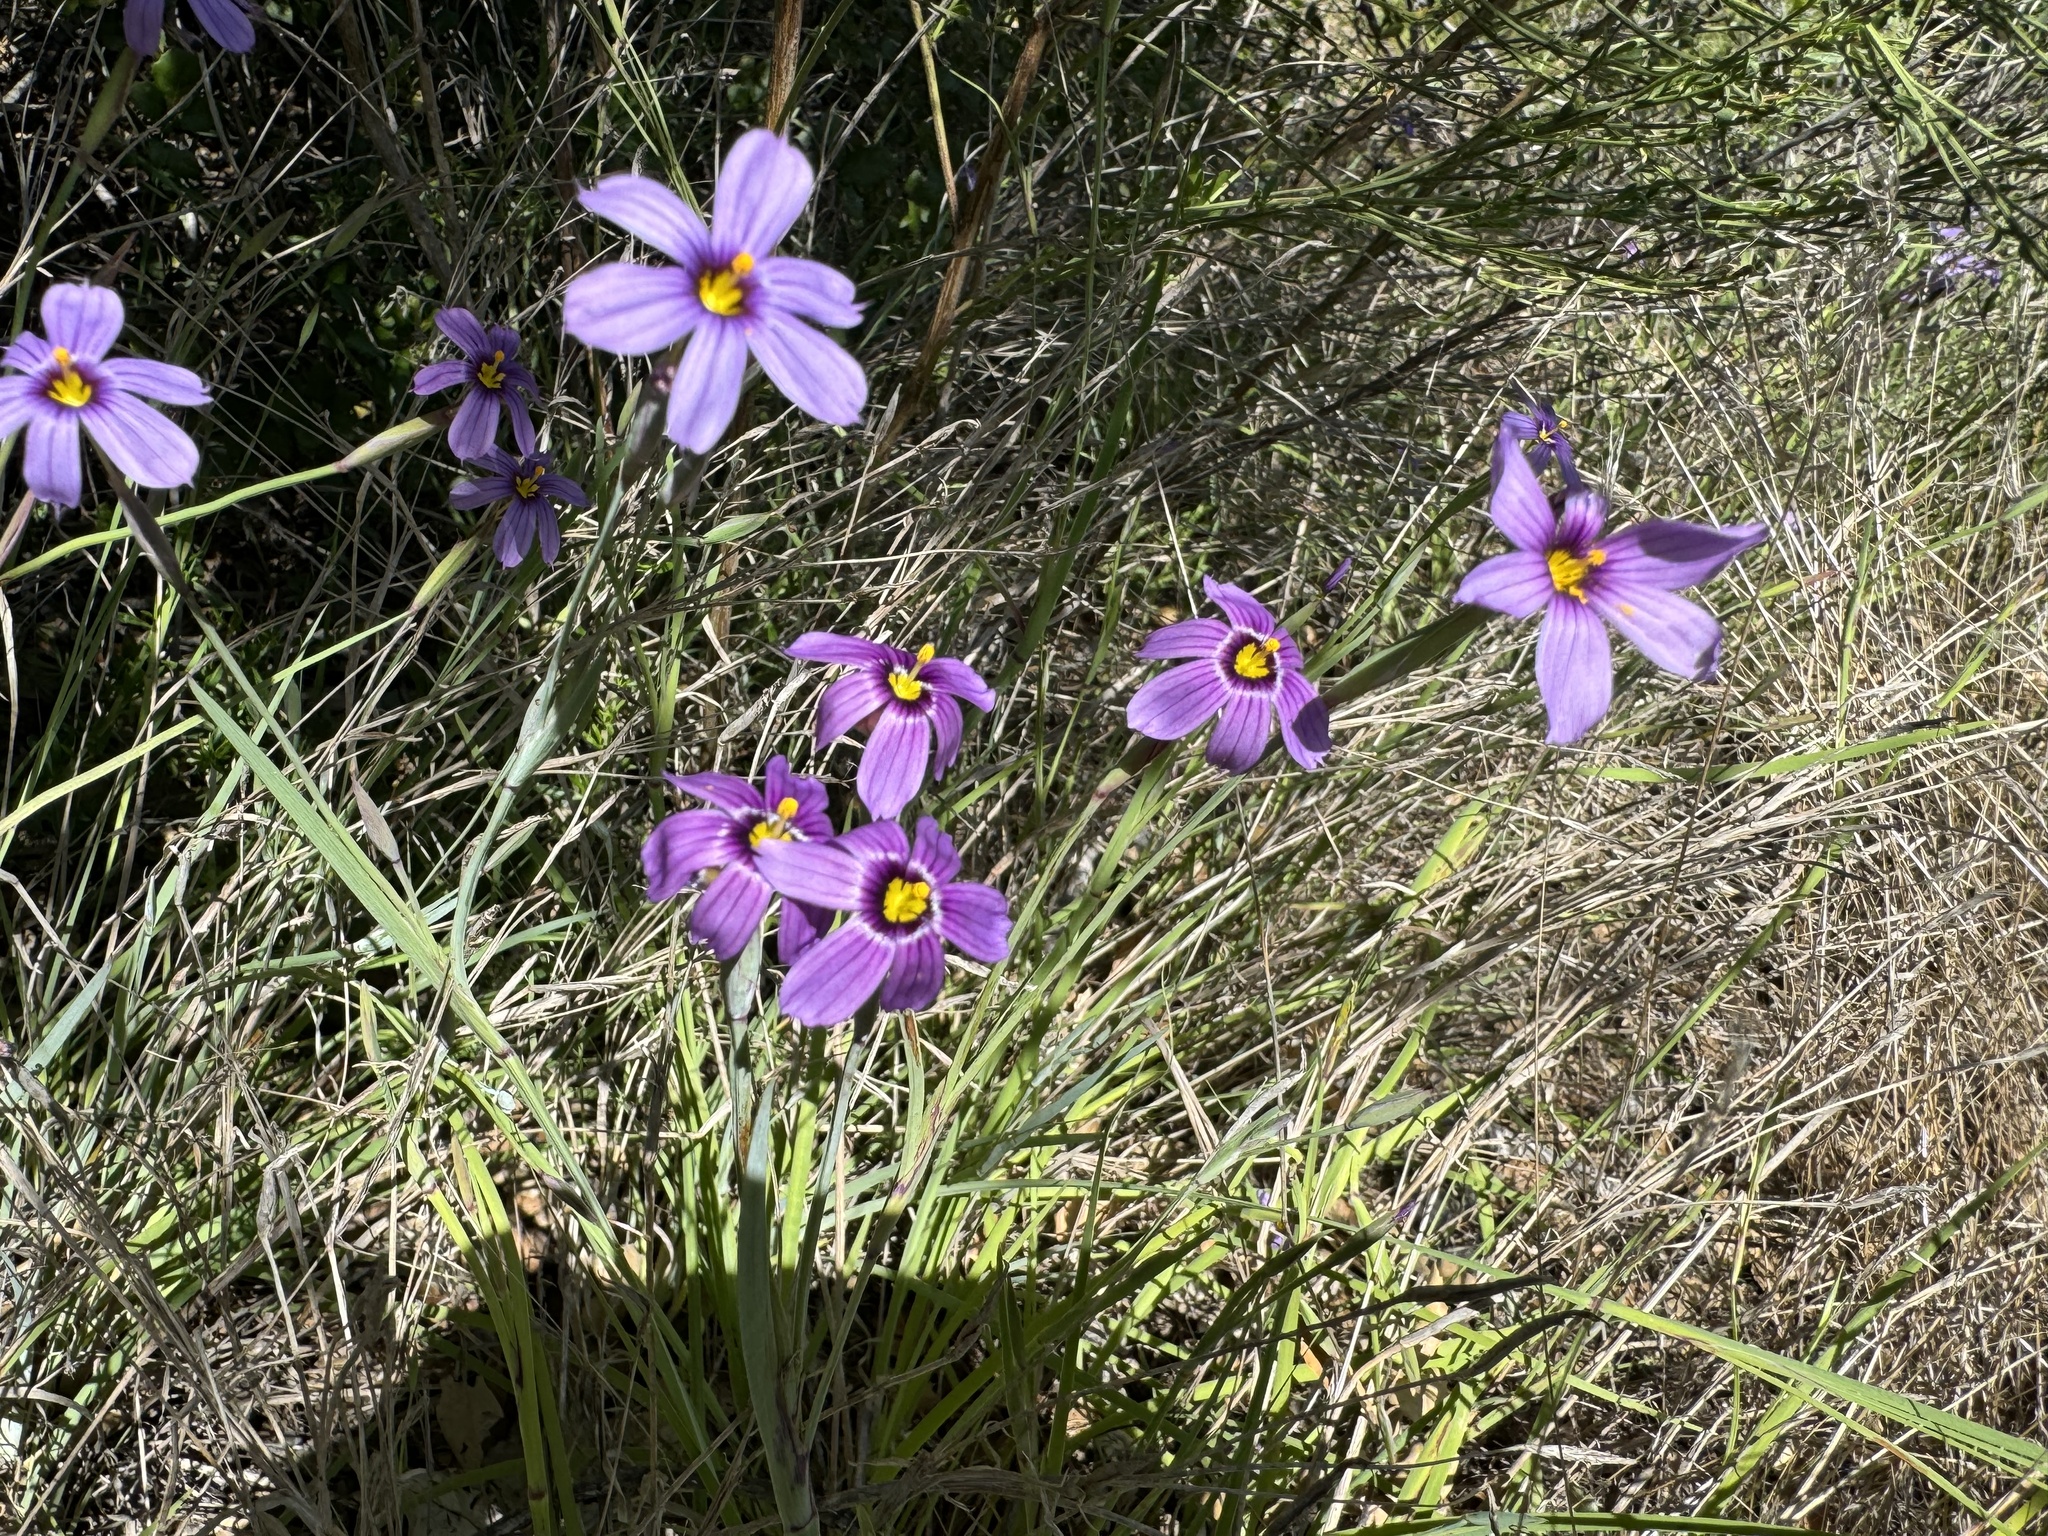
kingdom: Plantae
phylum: Tracheophyta
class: Liliopsida
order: Asparagales
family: Iridaceae
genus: Sisyrinchium
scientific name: Sisyrinchium bellum
